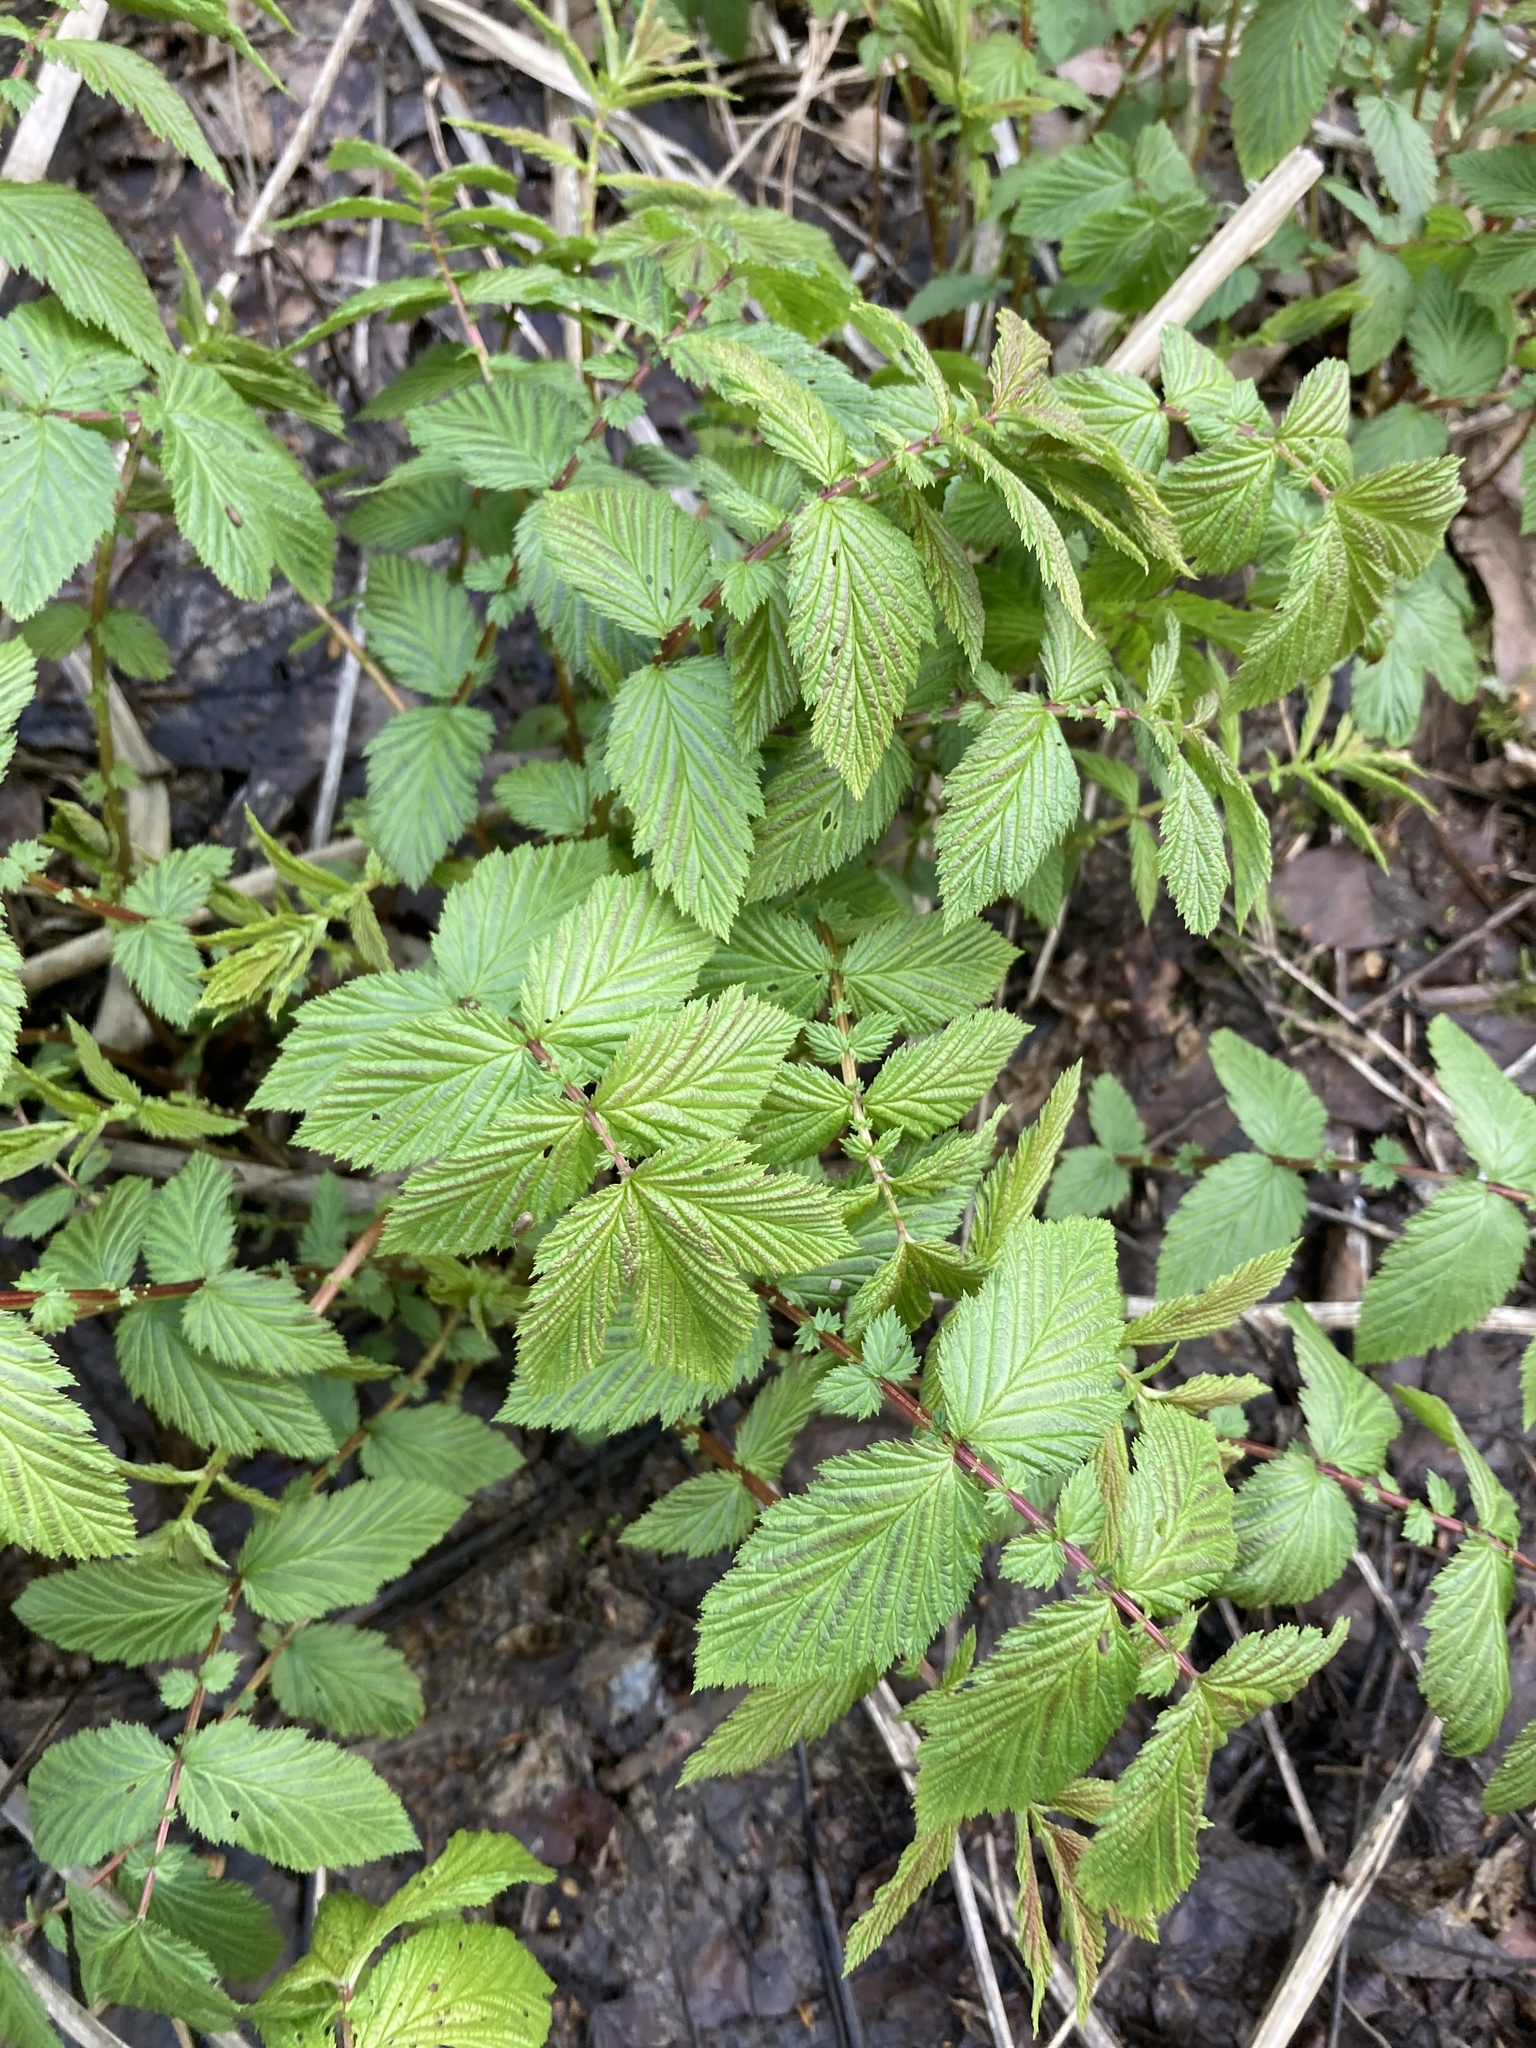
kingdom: Plantae
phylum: Tracheophyta
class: Magnoliopsida
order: Rosales
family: Rosaceae
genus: Filipendula
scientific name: Filipendula ulmaria
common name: Meadowsweet
